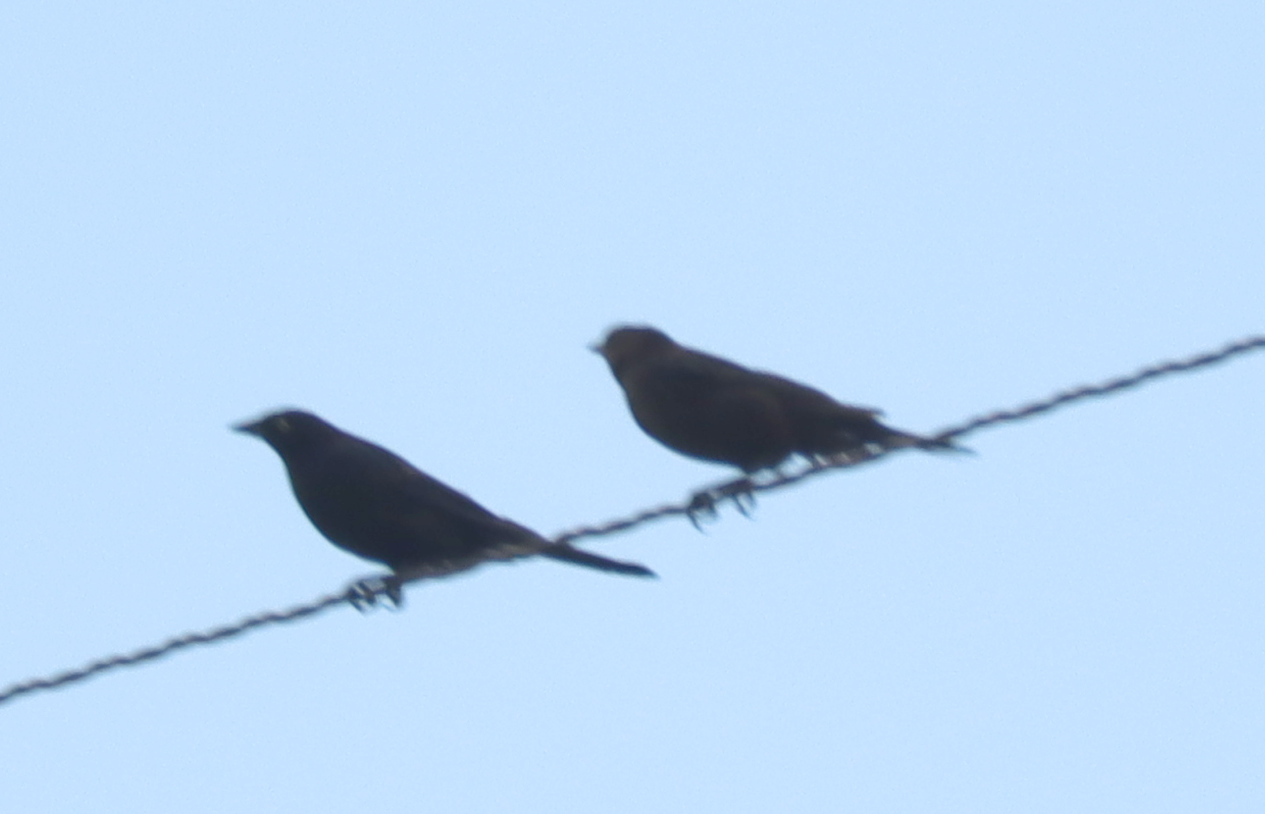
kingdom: Animalia
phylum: Chordata
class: Aves
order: Passeriformes
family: Icteridae
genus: Euphagus
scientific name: Euphagus cyanocephalus
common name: Brewer's blackbird
